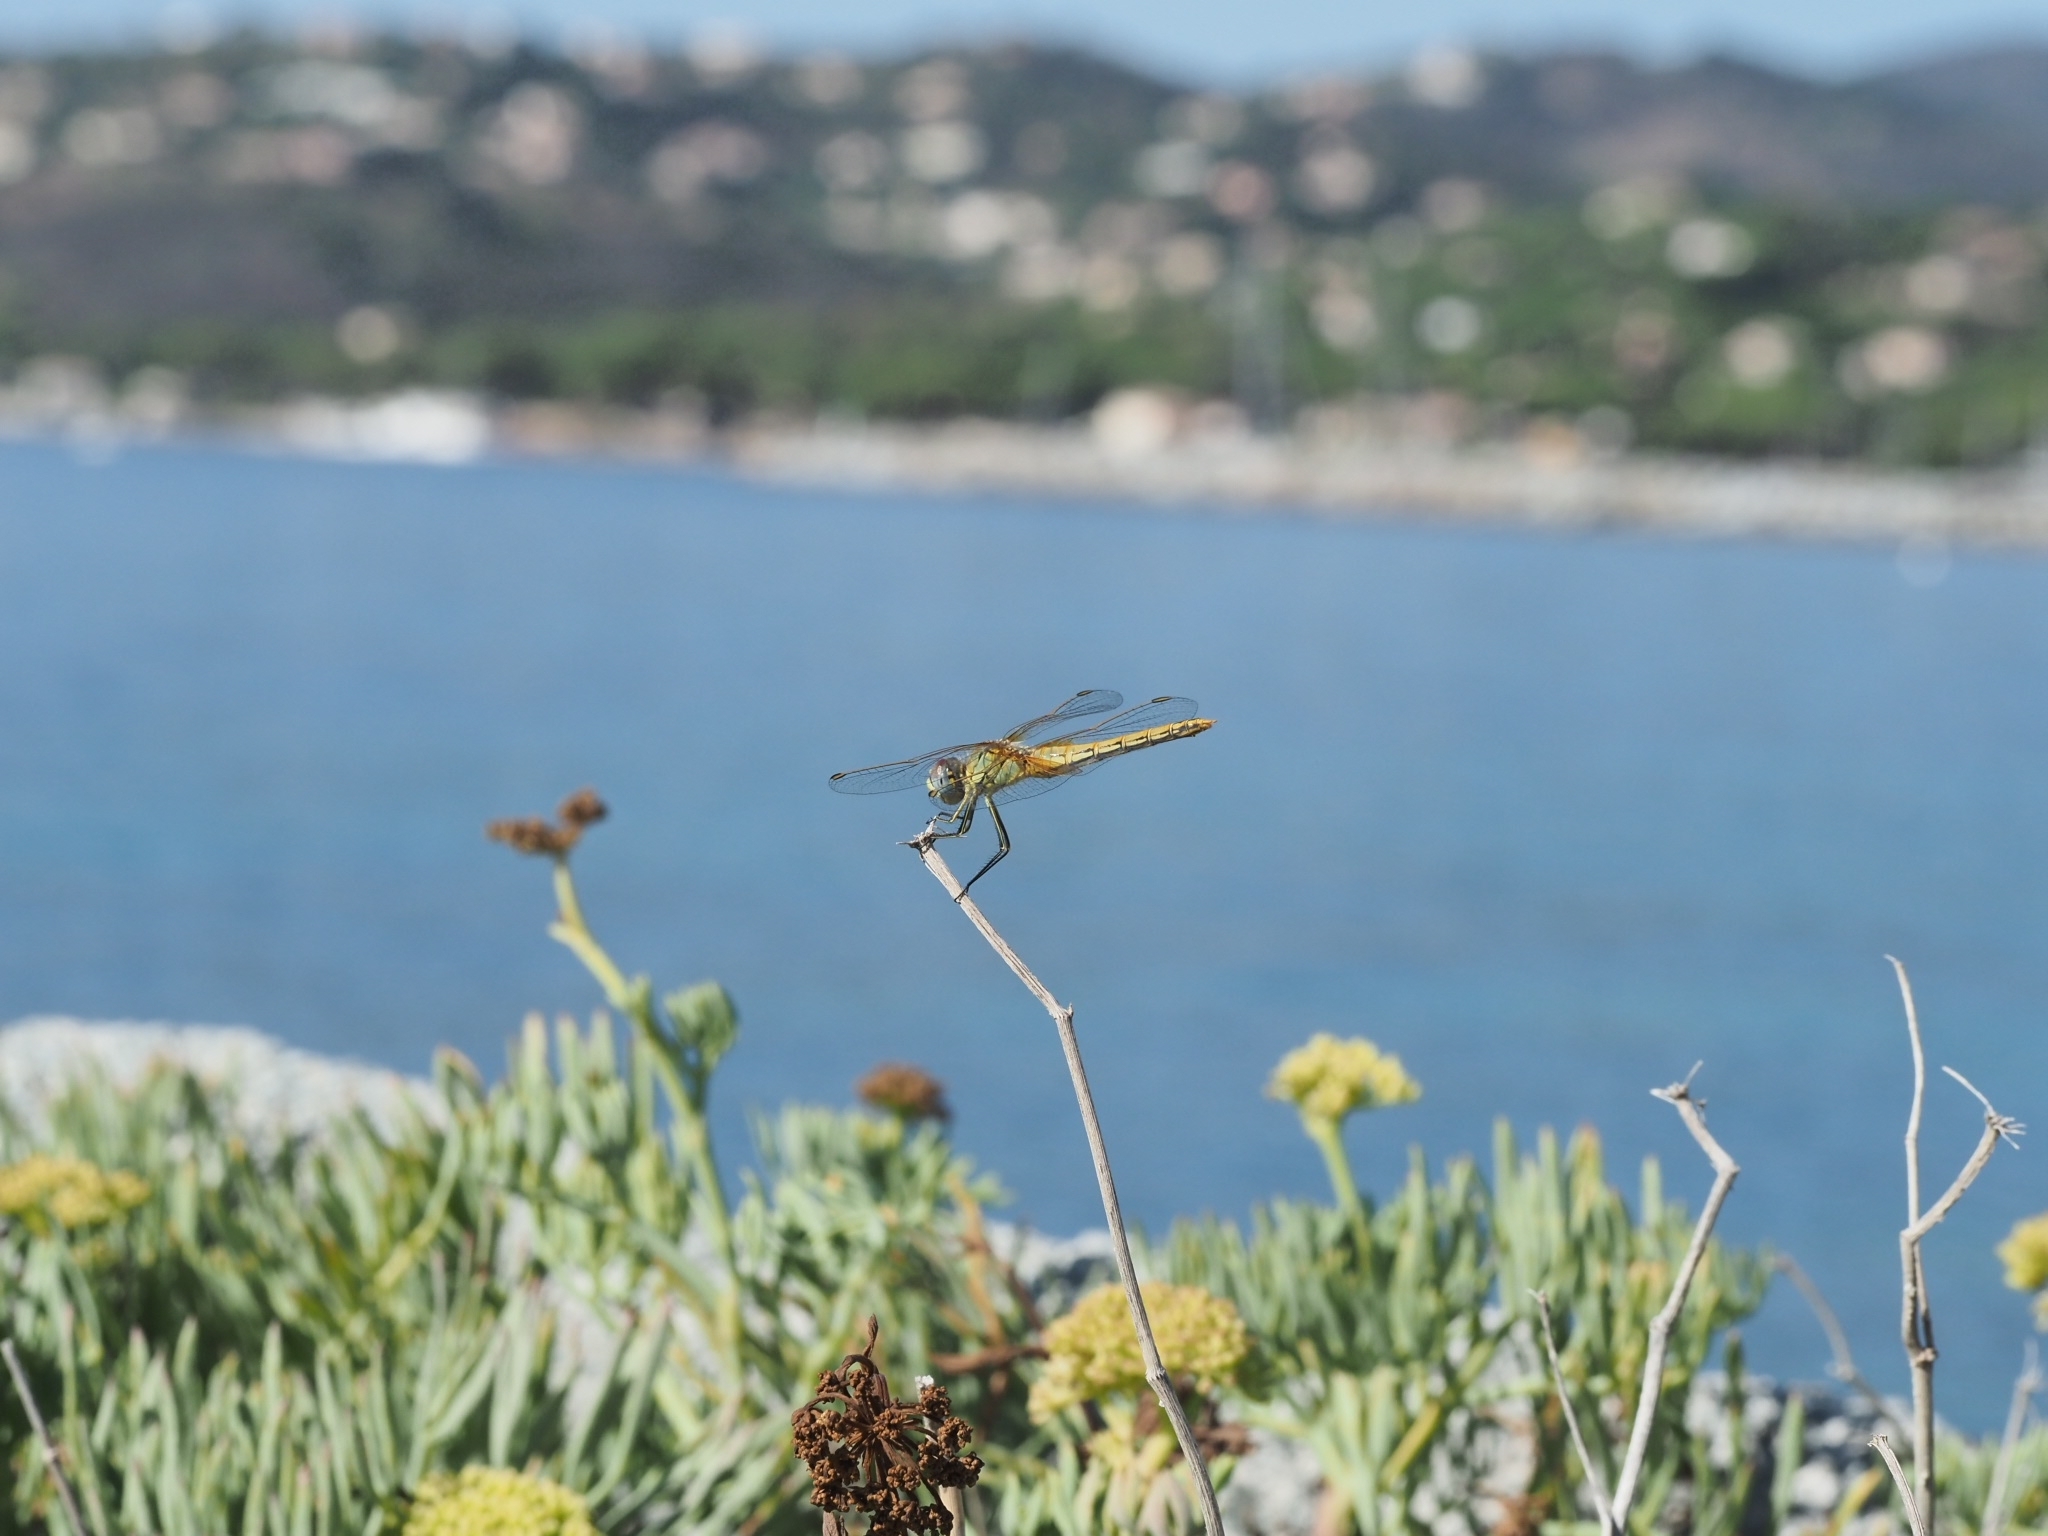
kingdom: Animalia
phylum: Arthropoda
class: Insecta
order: Odonata
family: Libellulidae
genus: Sympetrum
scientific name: Sympetrum fonscolombii
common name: Red-veined darter
